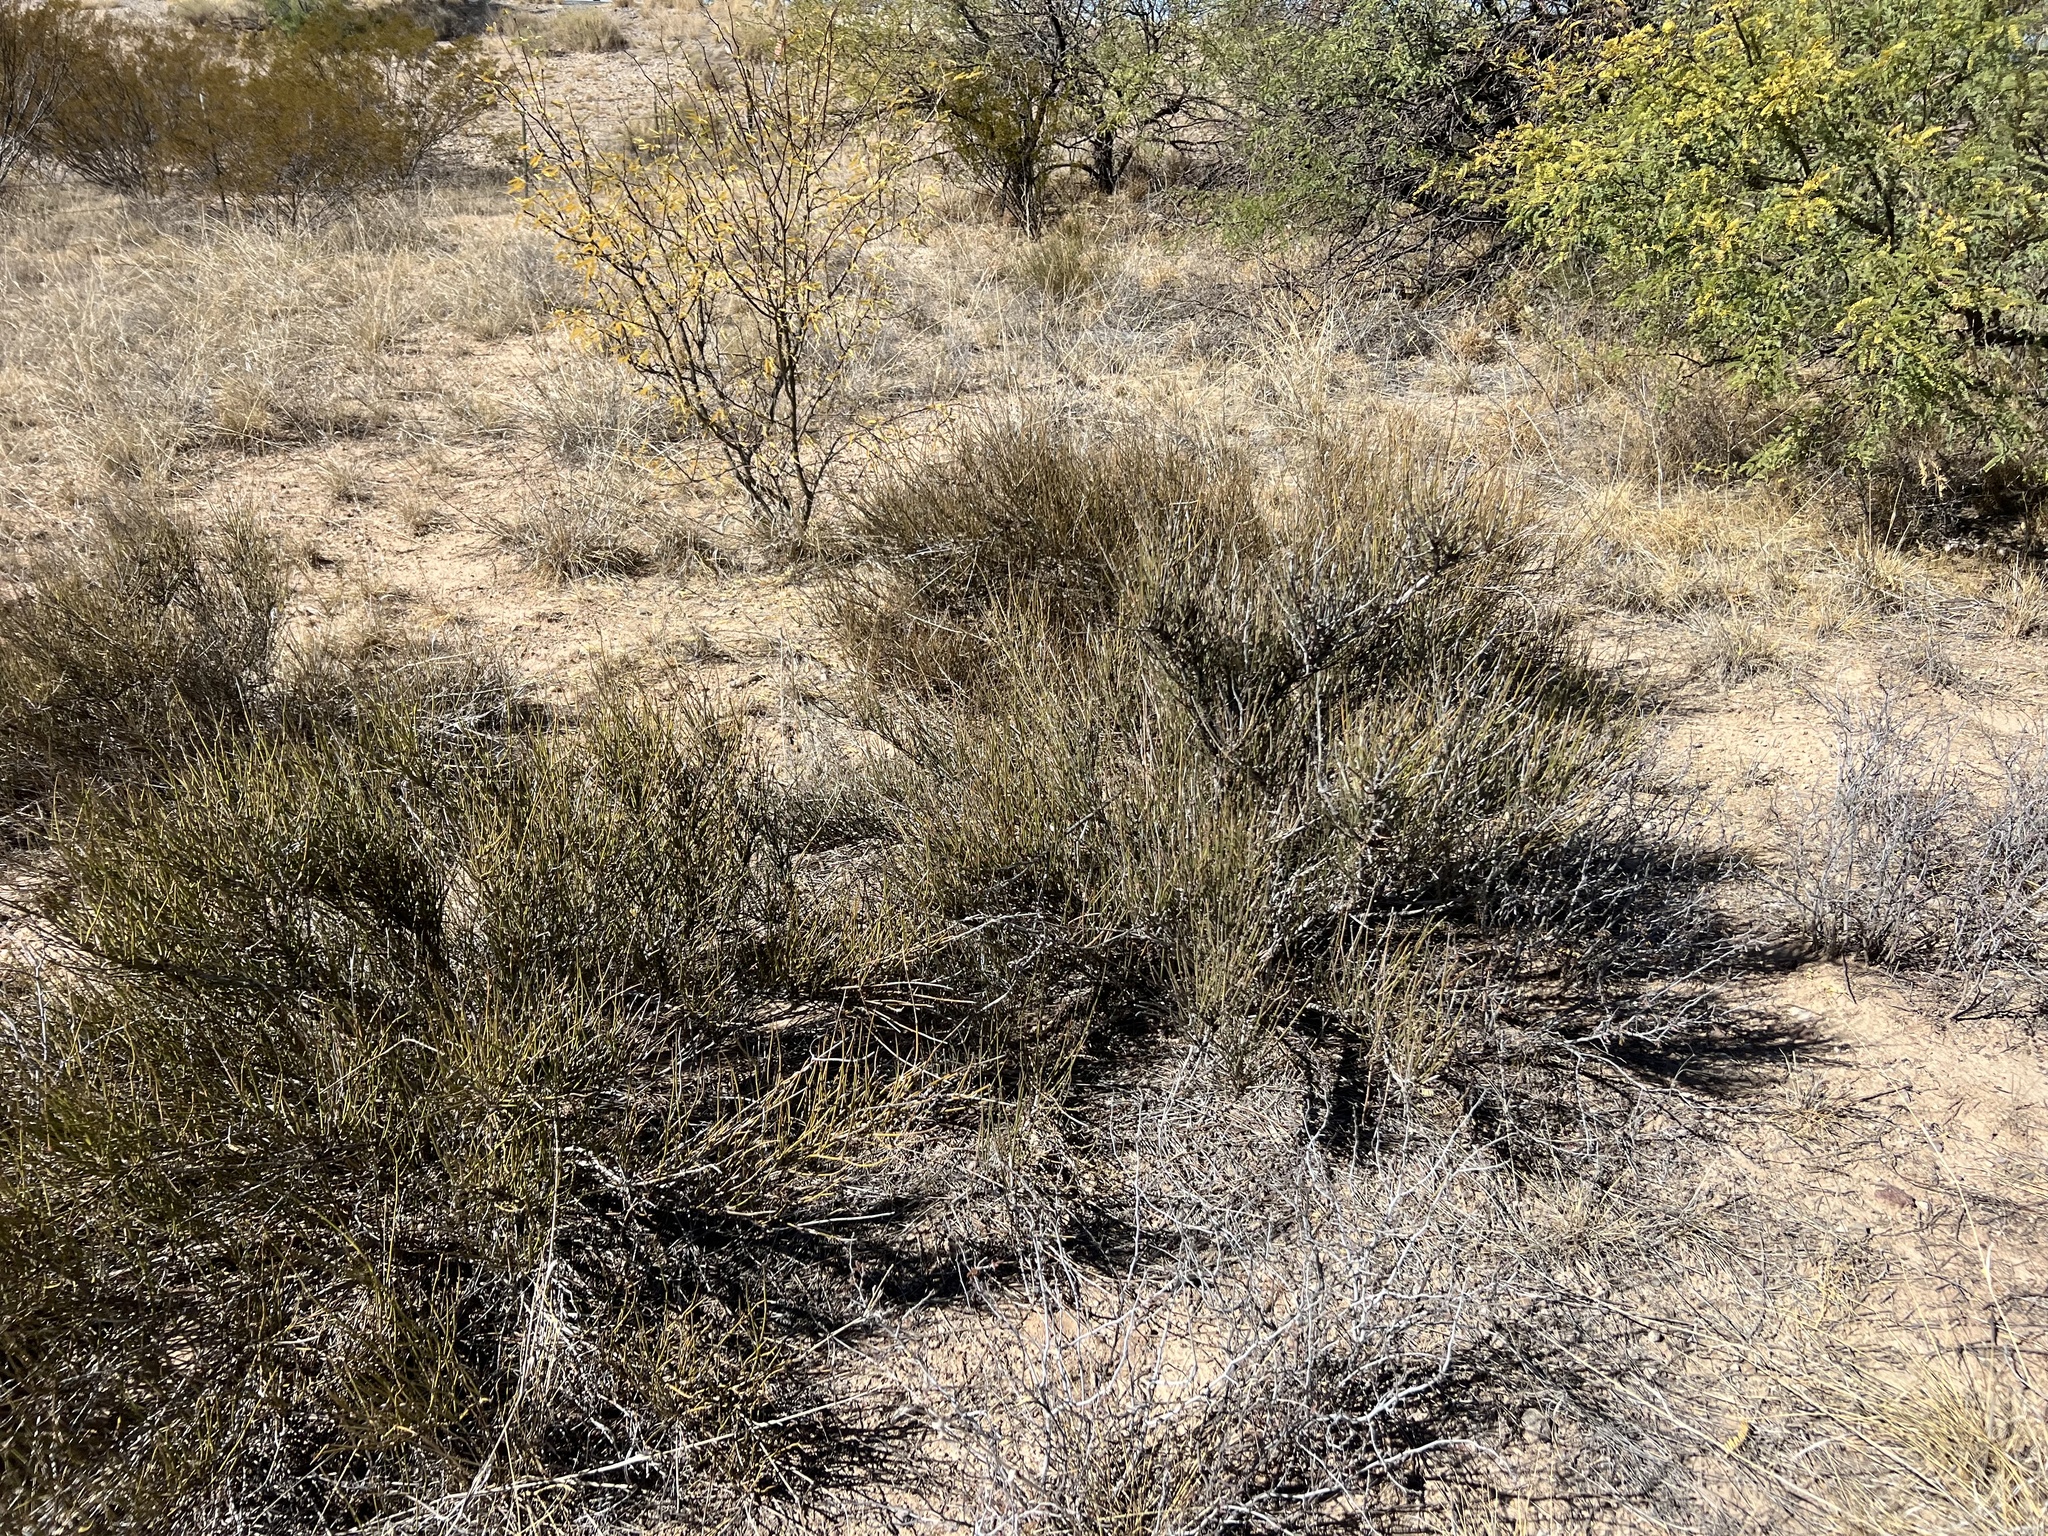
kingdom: Plantae
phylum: Tracheophyta
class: Gnetopsida
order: Ephedrales
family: Ephedraceae
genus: Ephedra
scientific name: Ephedra trifurca
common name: Mexican-tea
